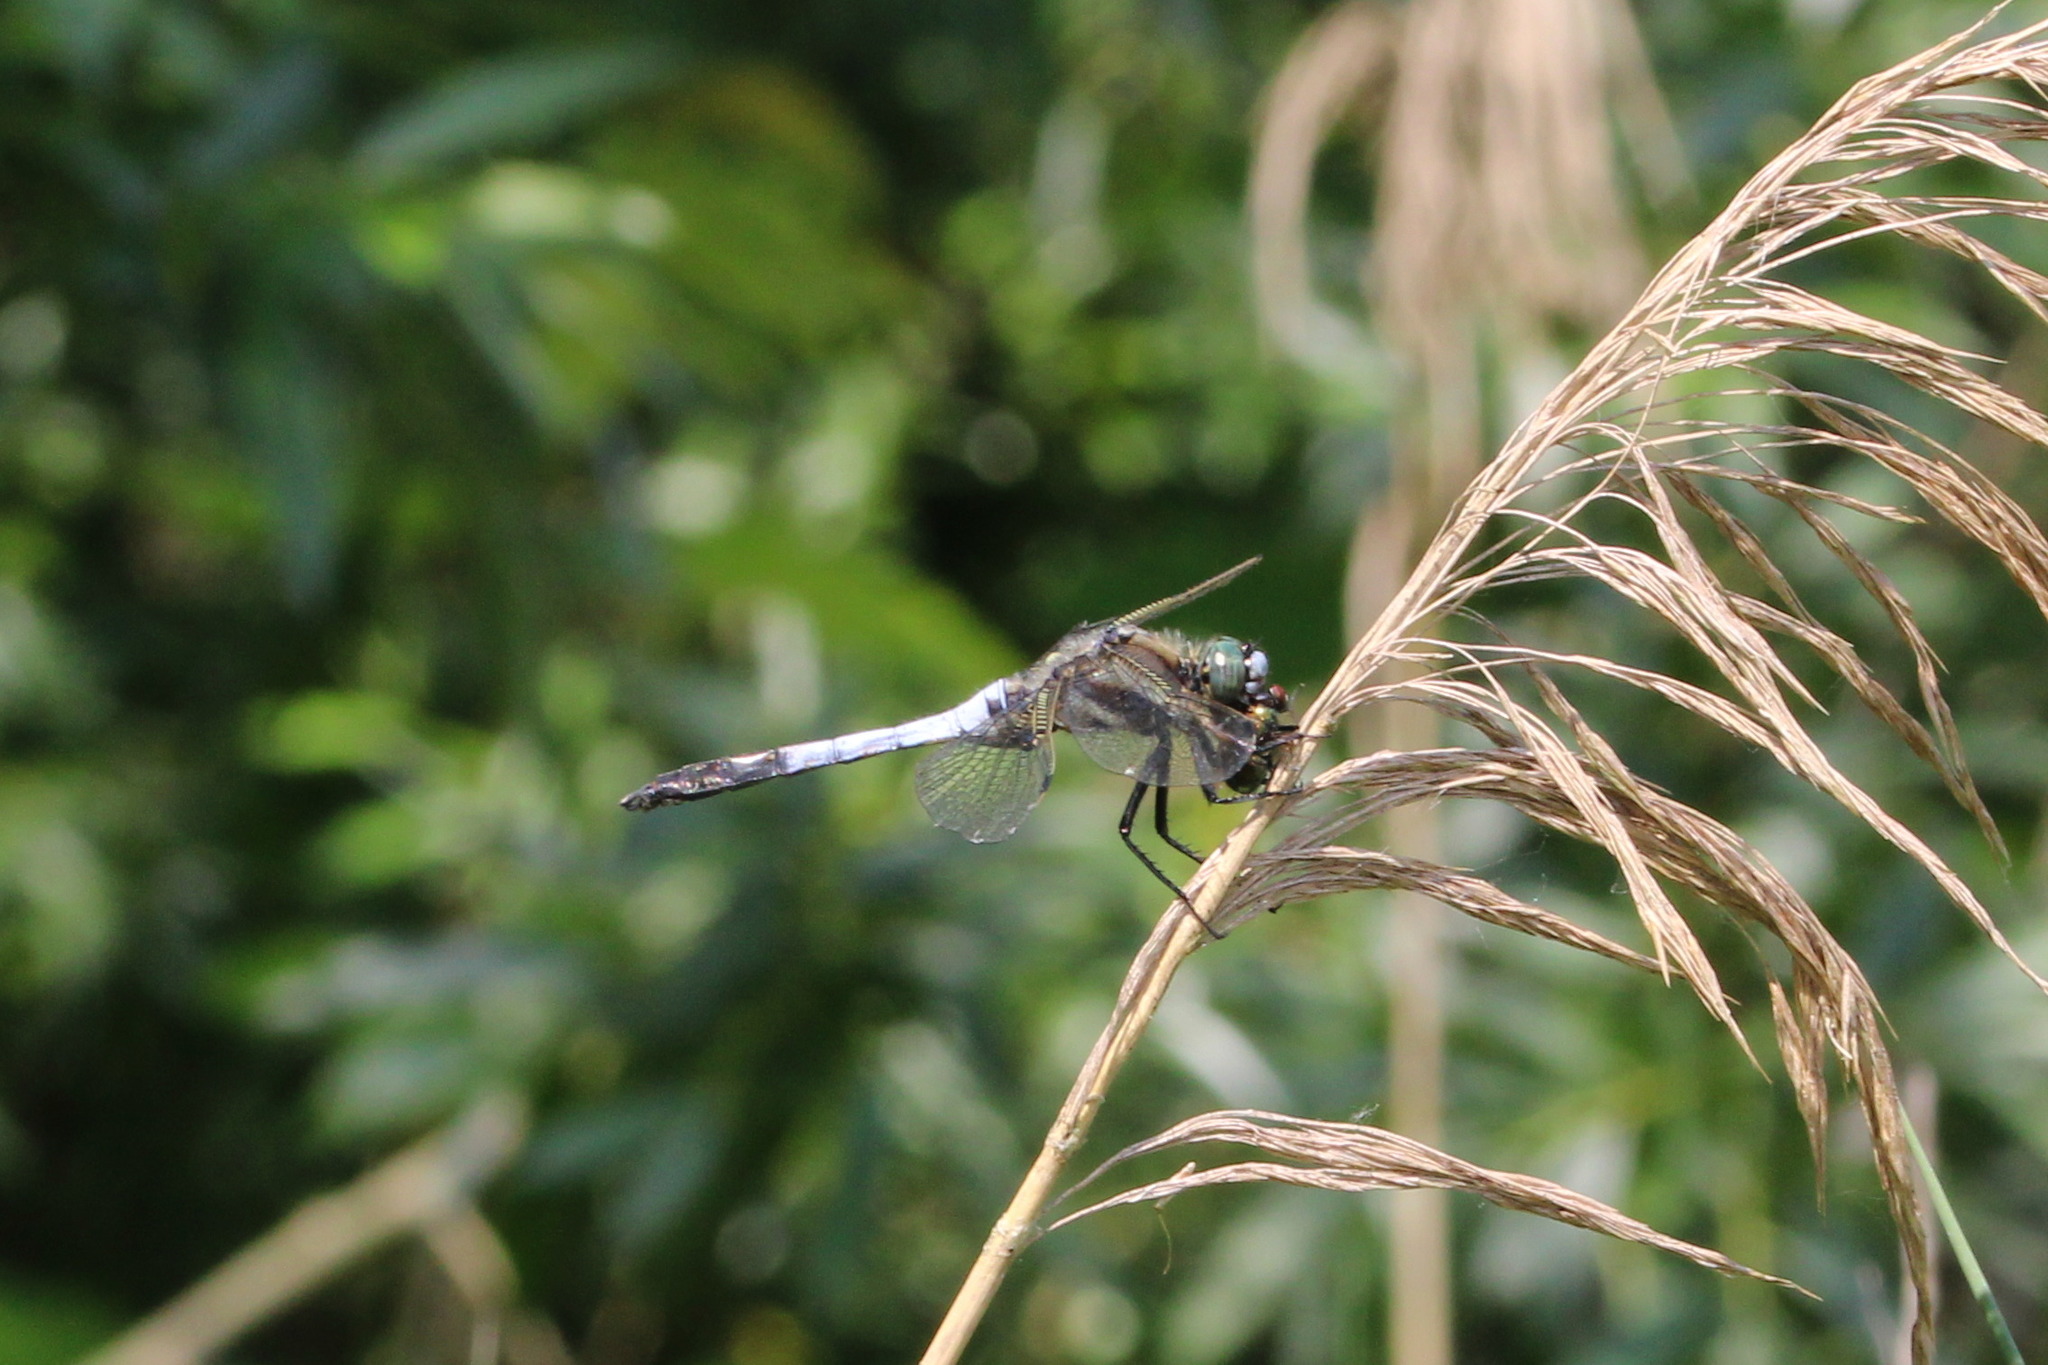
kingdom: Animalia
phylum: Arthropoda
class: Insecta
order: Odonata
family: Libellulidae
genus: Orthetrum
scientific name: Orthetrum albistylum
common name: White-tailed skimmer
